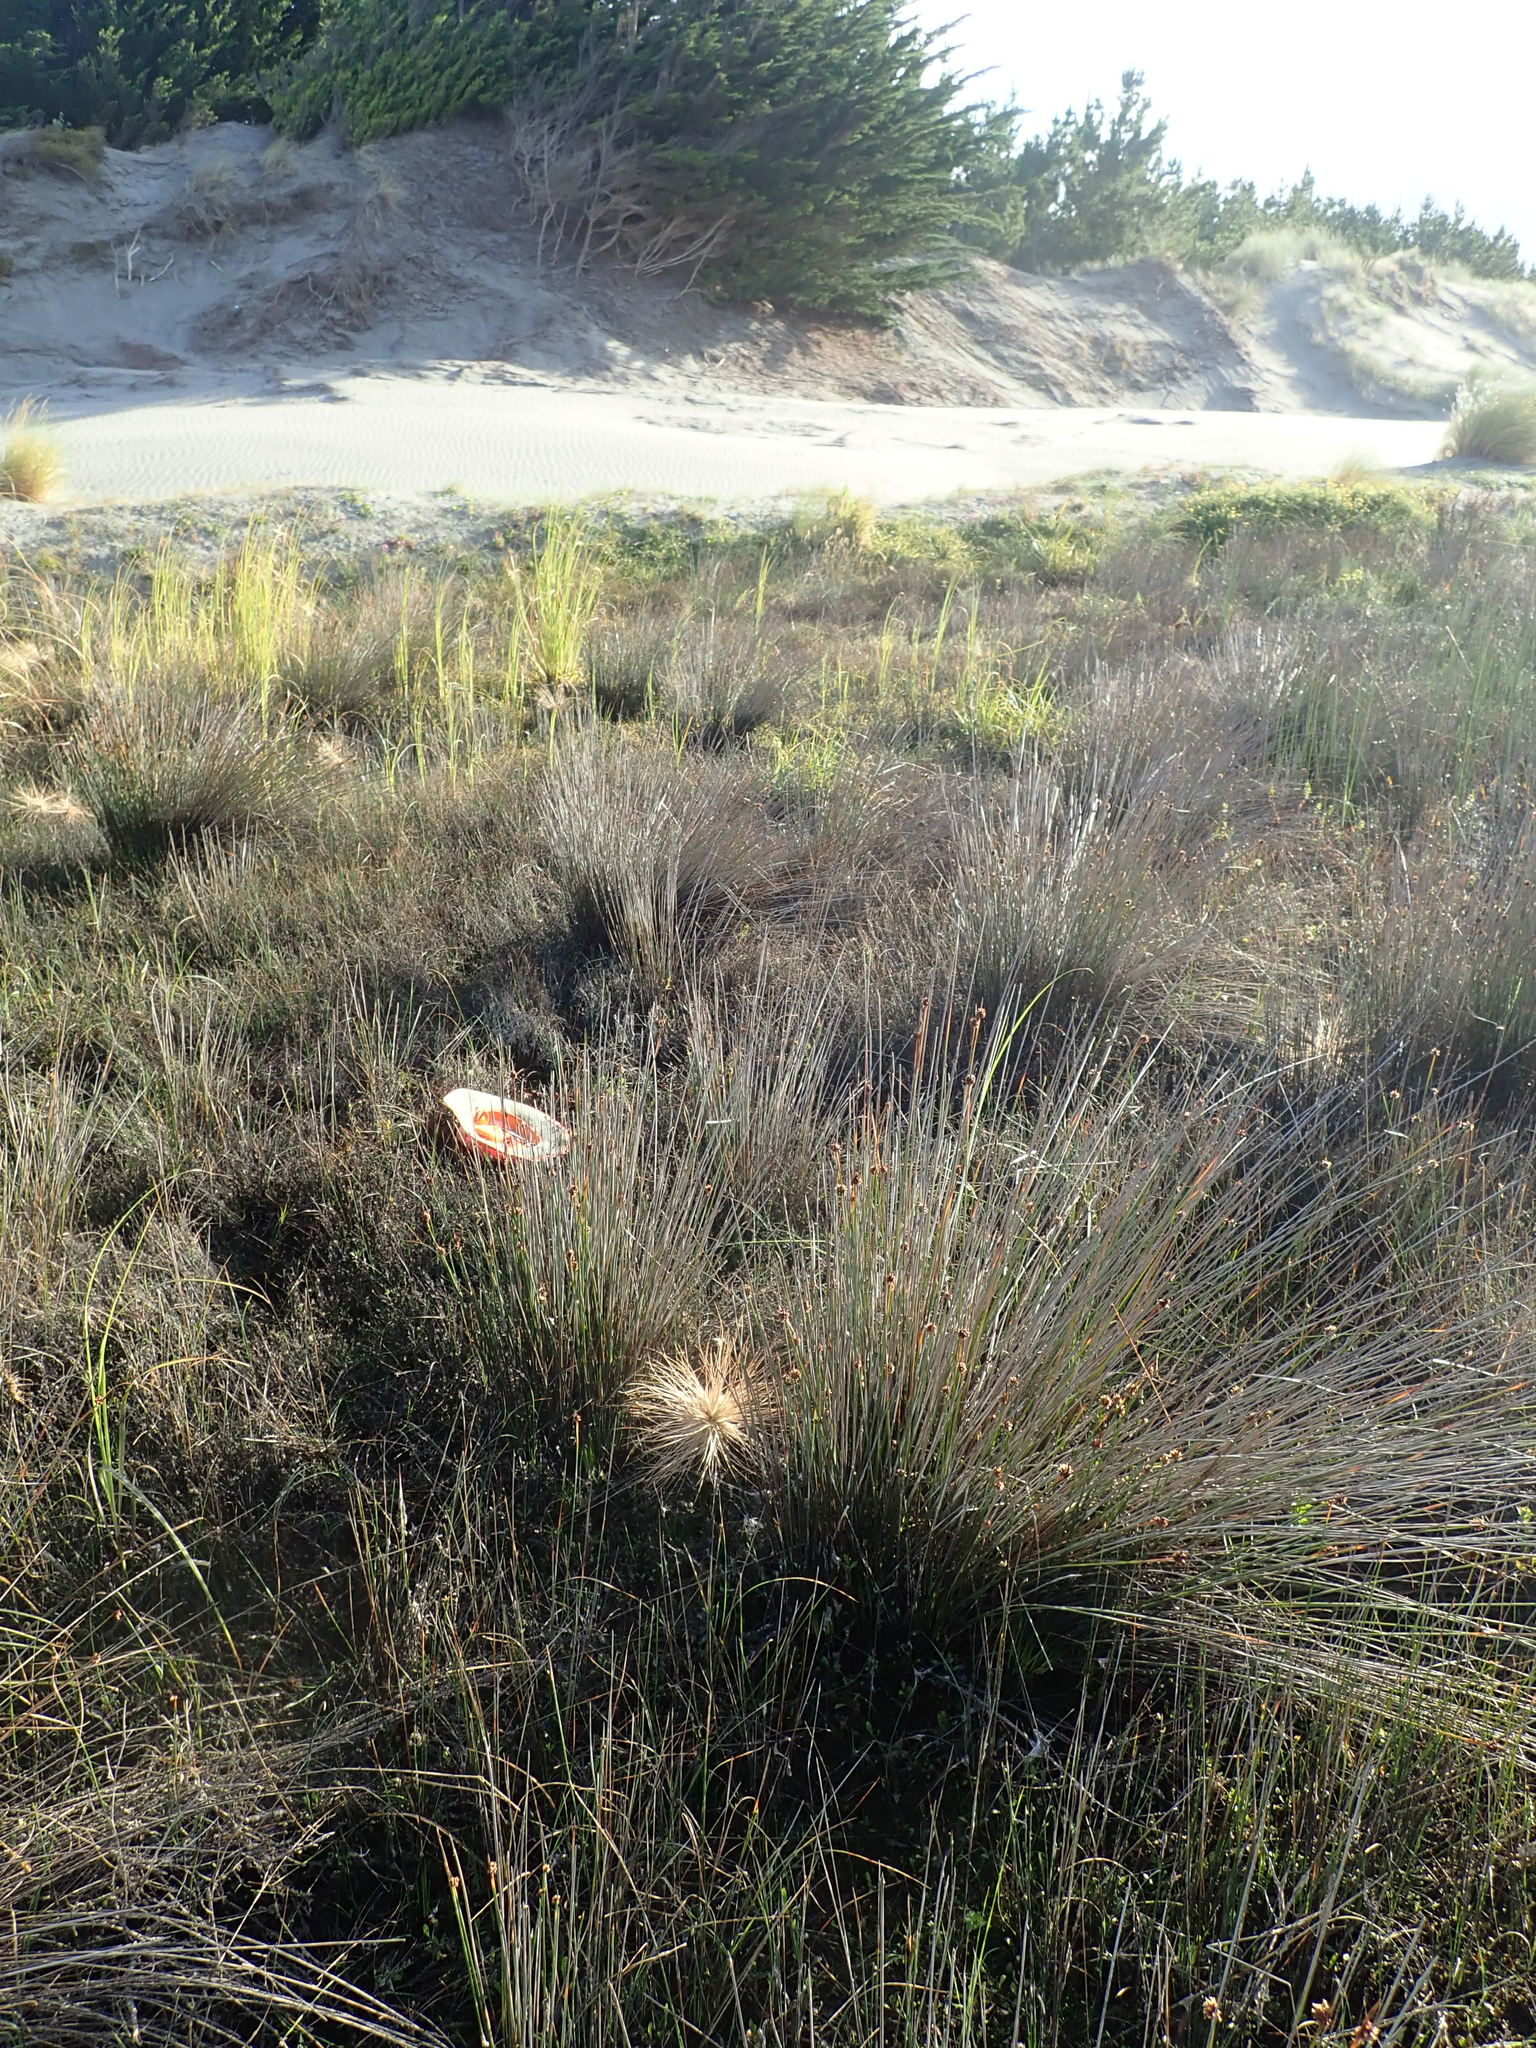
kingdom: Plantae
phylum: Tracheophyta
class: Magnoliopsida
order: Myrtales
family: Onagraceae
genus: Epilobium
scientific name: Epilobium billardiereanum
